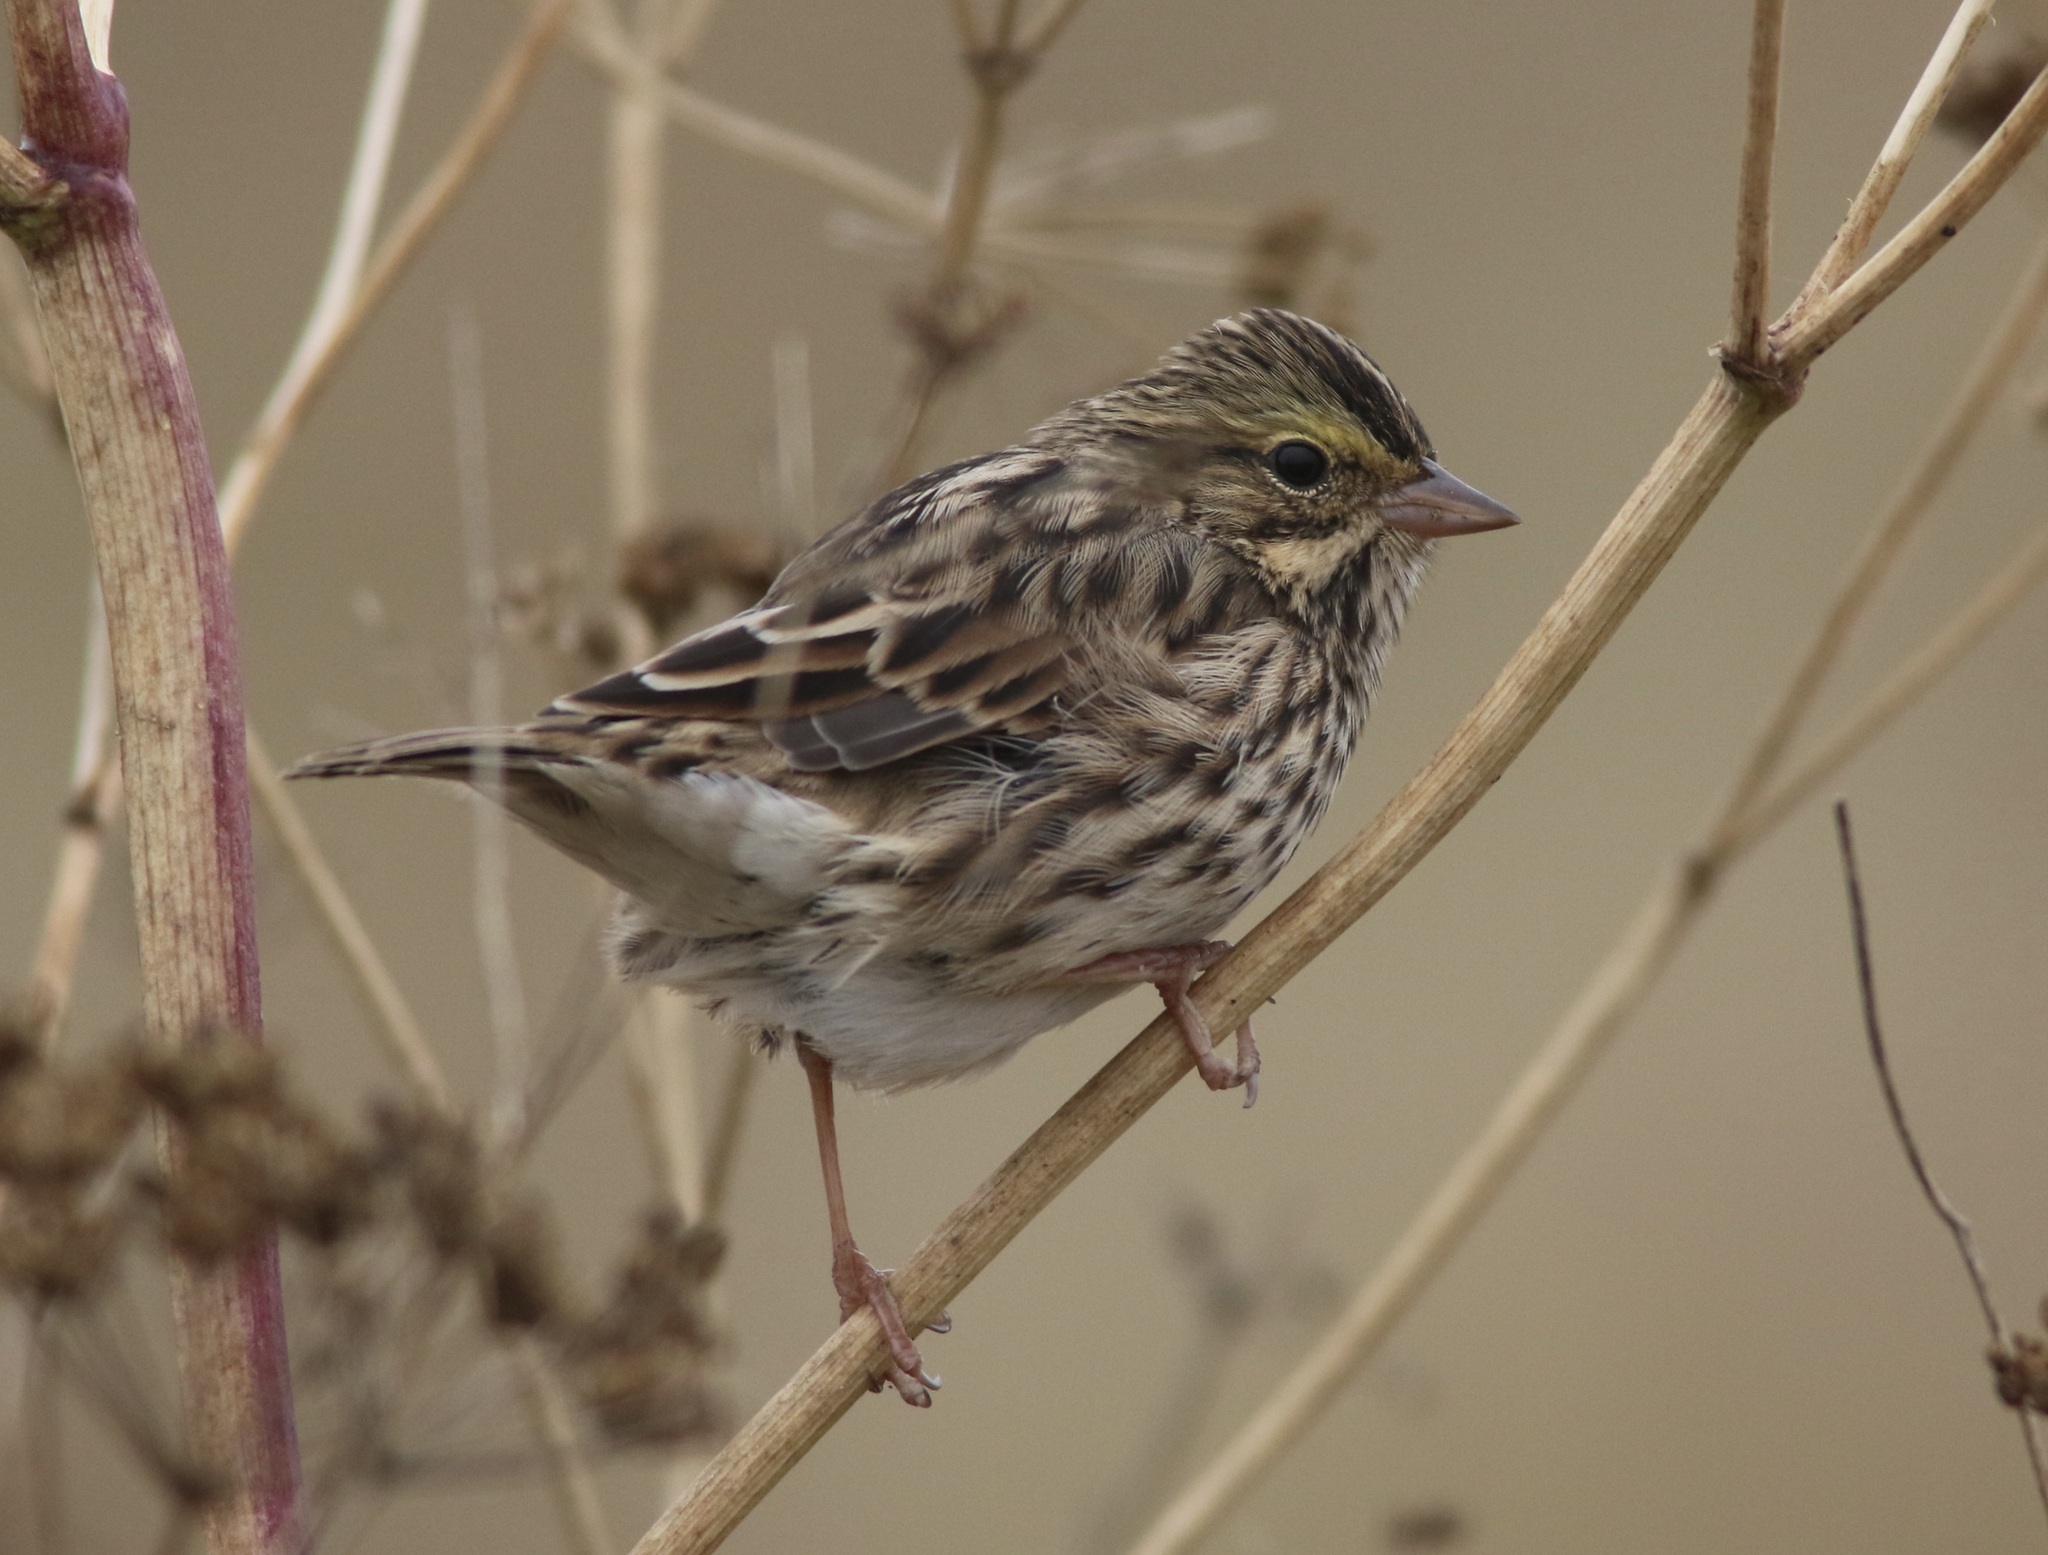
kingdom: Animalia
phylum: Chordata
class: Aves
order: Passeriformes
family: Passerellidae
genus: Passerculus
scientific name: Passerculus sandwichensis
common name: Savannah sparrow
